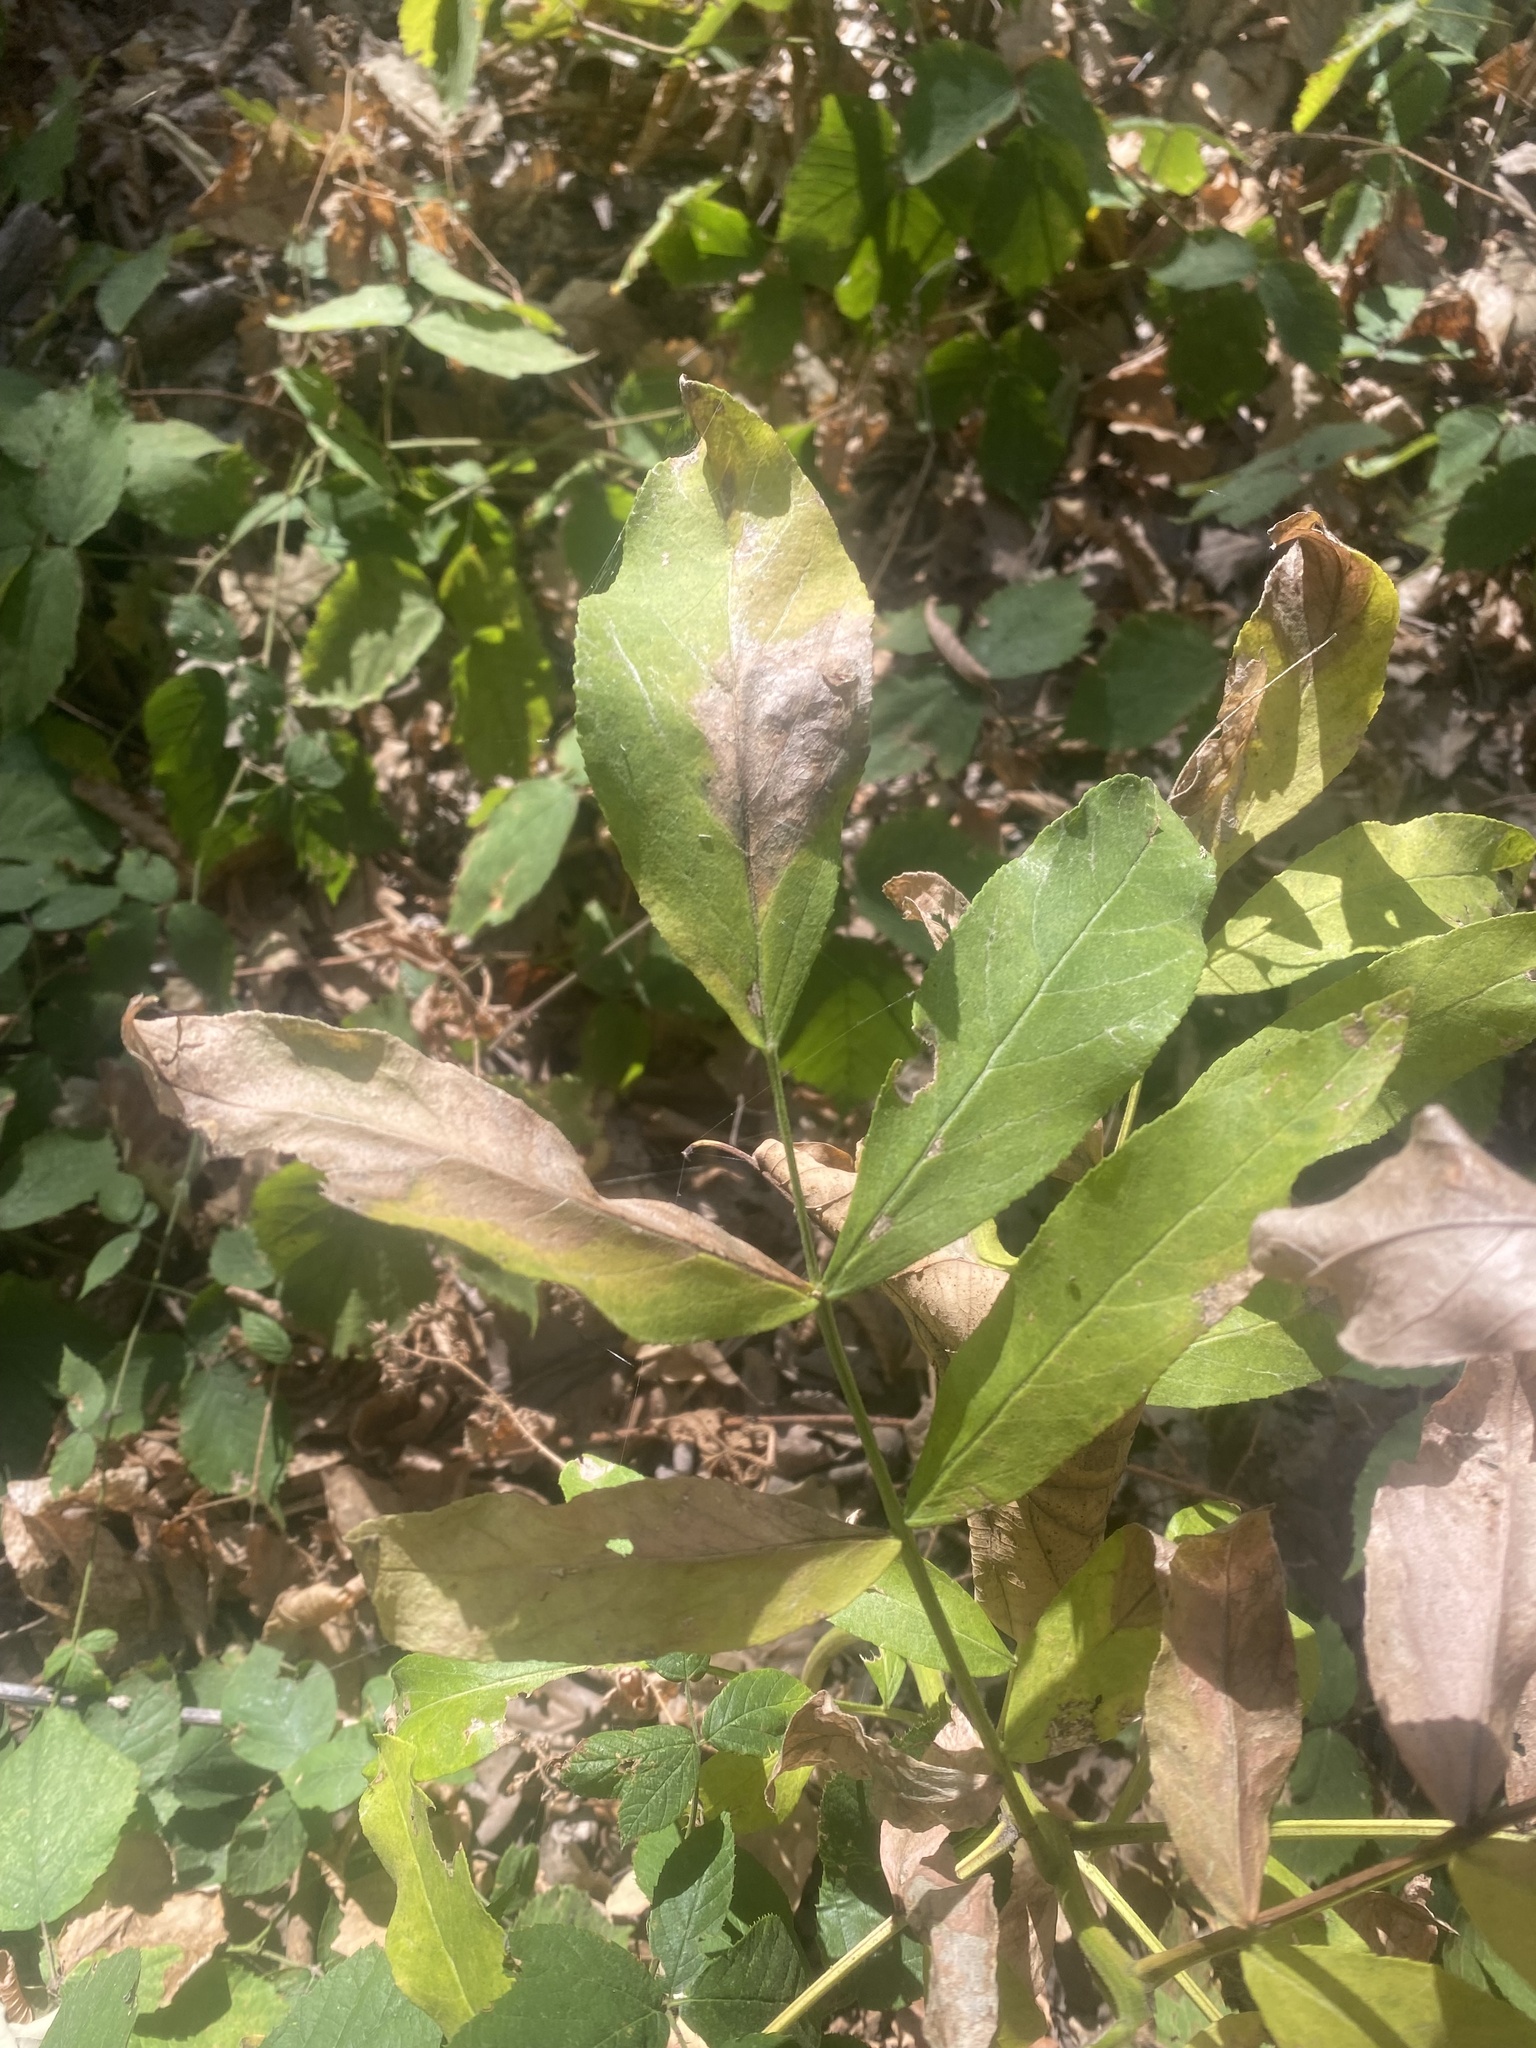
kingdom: Plantae
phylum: Tracheophyta
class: Magnoliopsida
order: Sapindales
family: Rutaceae
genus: Dictamnus
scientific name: Dictamnus albus
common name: Gasplant
